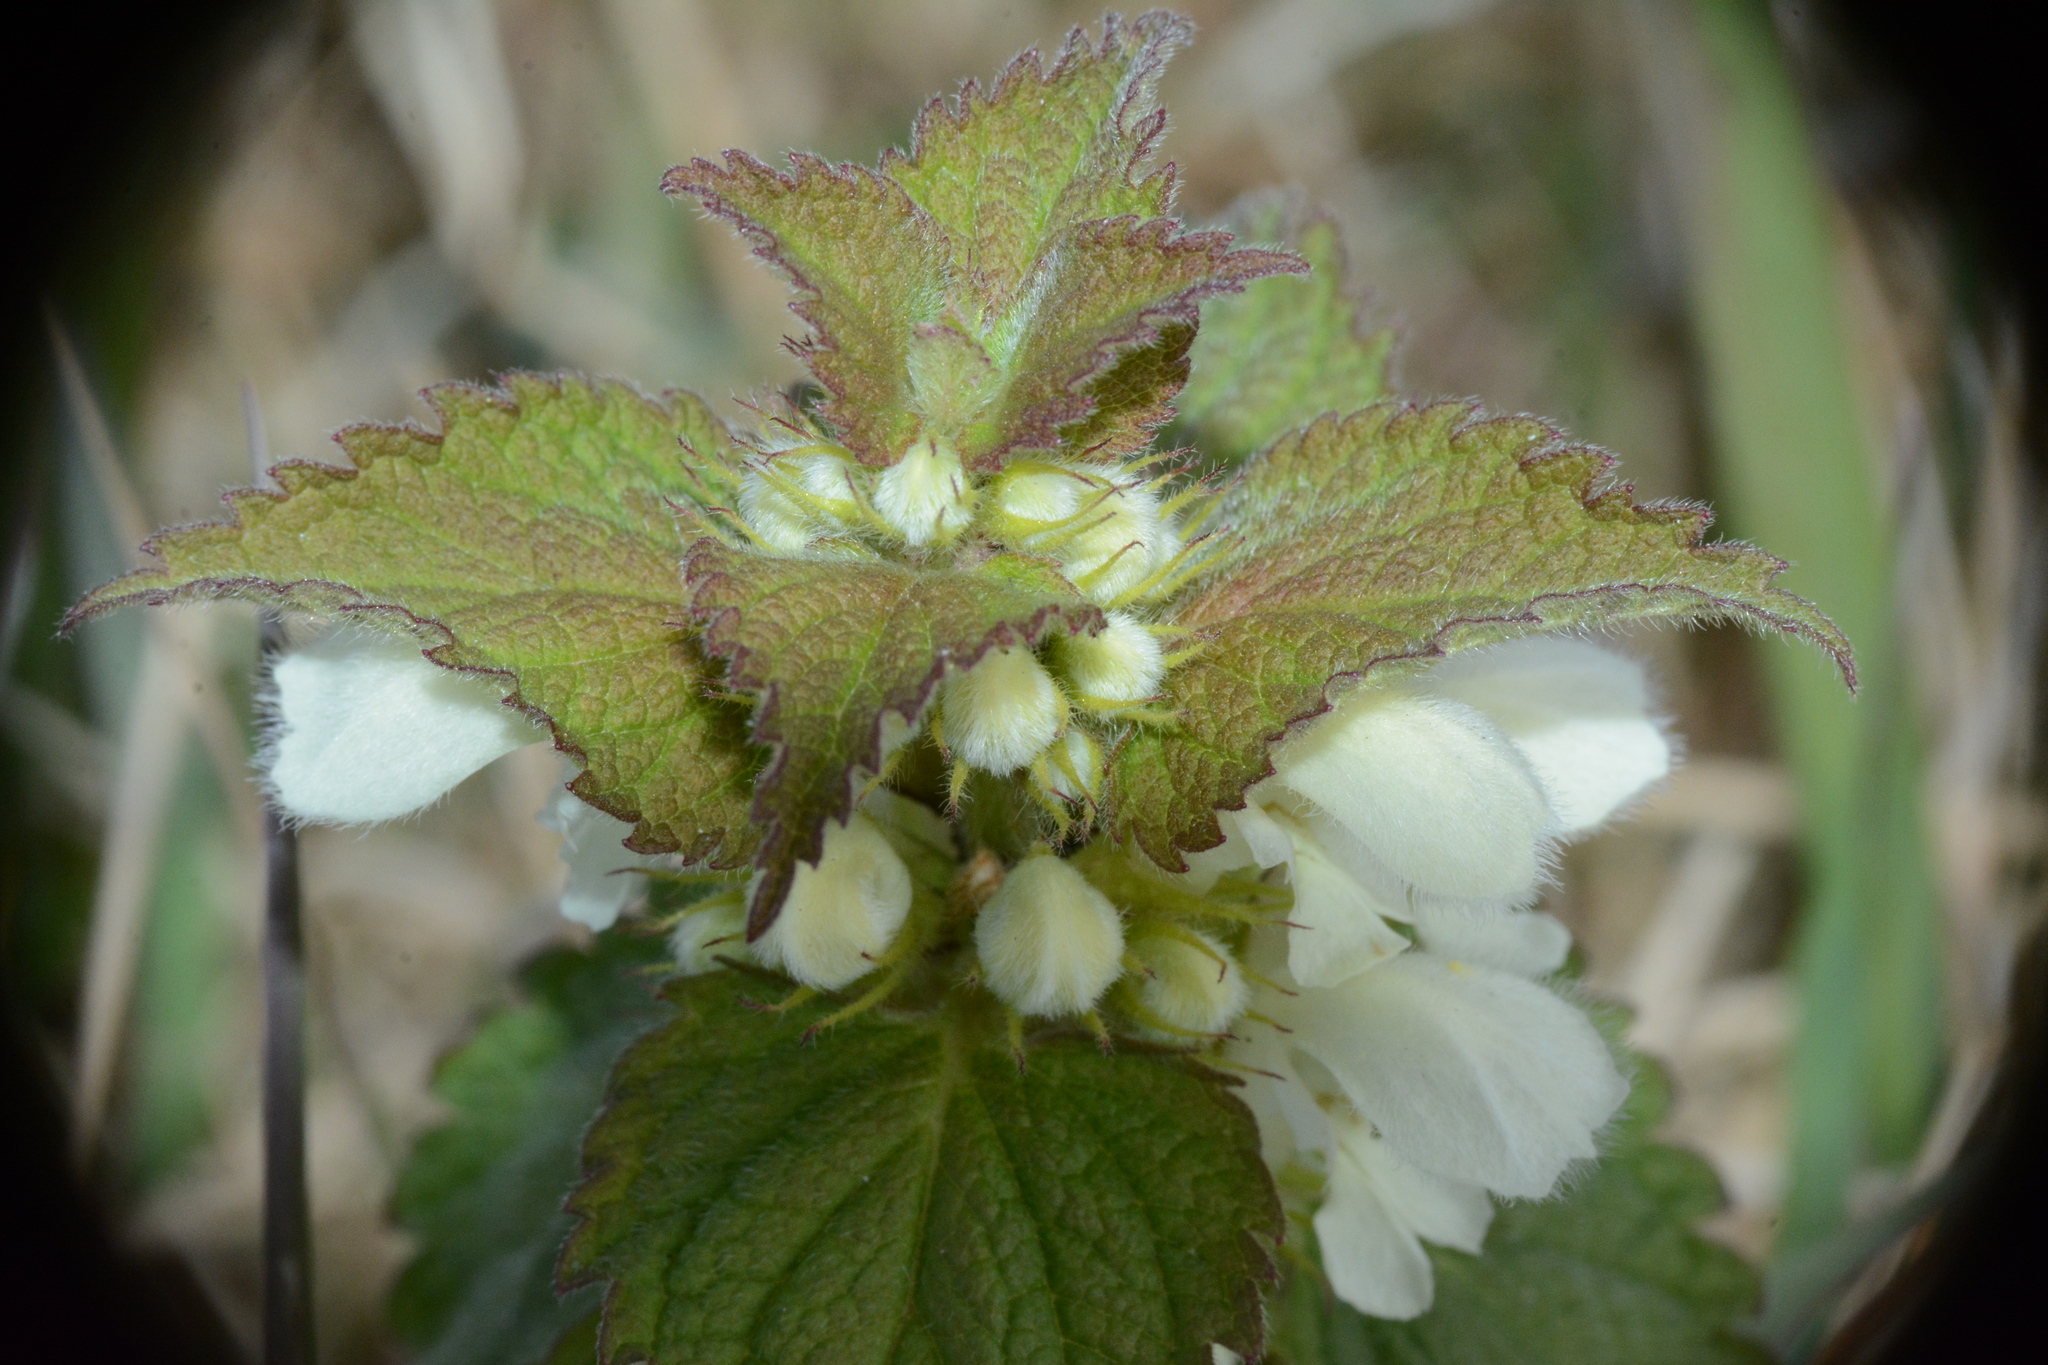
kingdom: Plantae
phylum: Tracheophyta
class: Magnoliopsida
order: Lamiales
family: Lamiaceae
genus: Lamium
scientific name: Lamium album
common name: White dead-nettle
